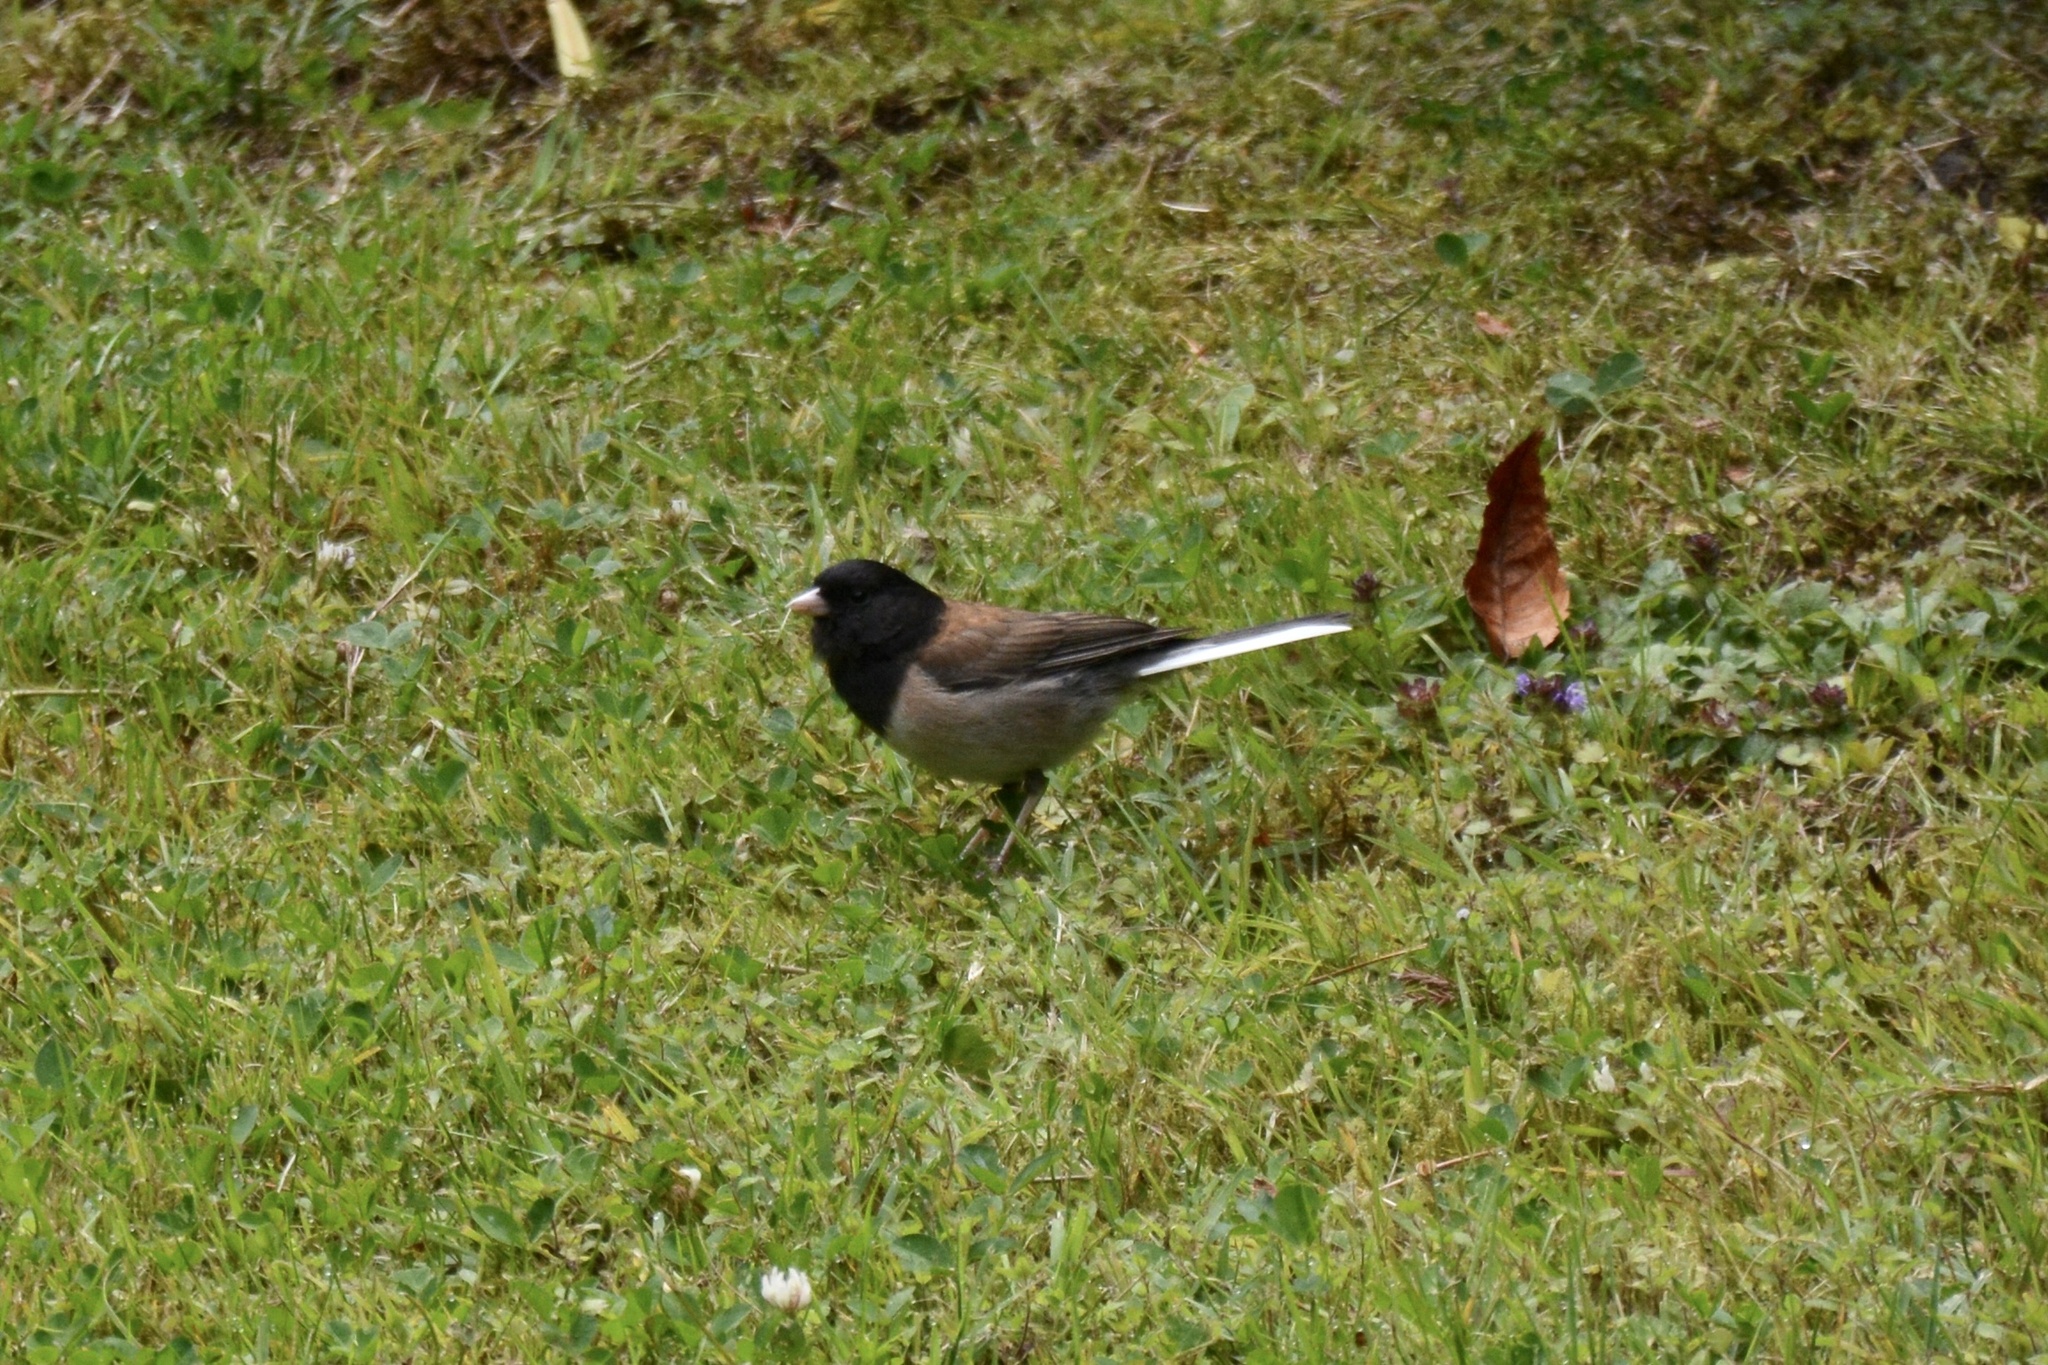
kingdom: Animalia
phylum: Chordata
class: Aves
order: Passeriformes
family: Passerellidae
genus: Junco
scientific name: Junco hyemalis
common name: Dark-eyed junco
